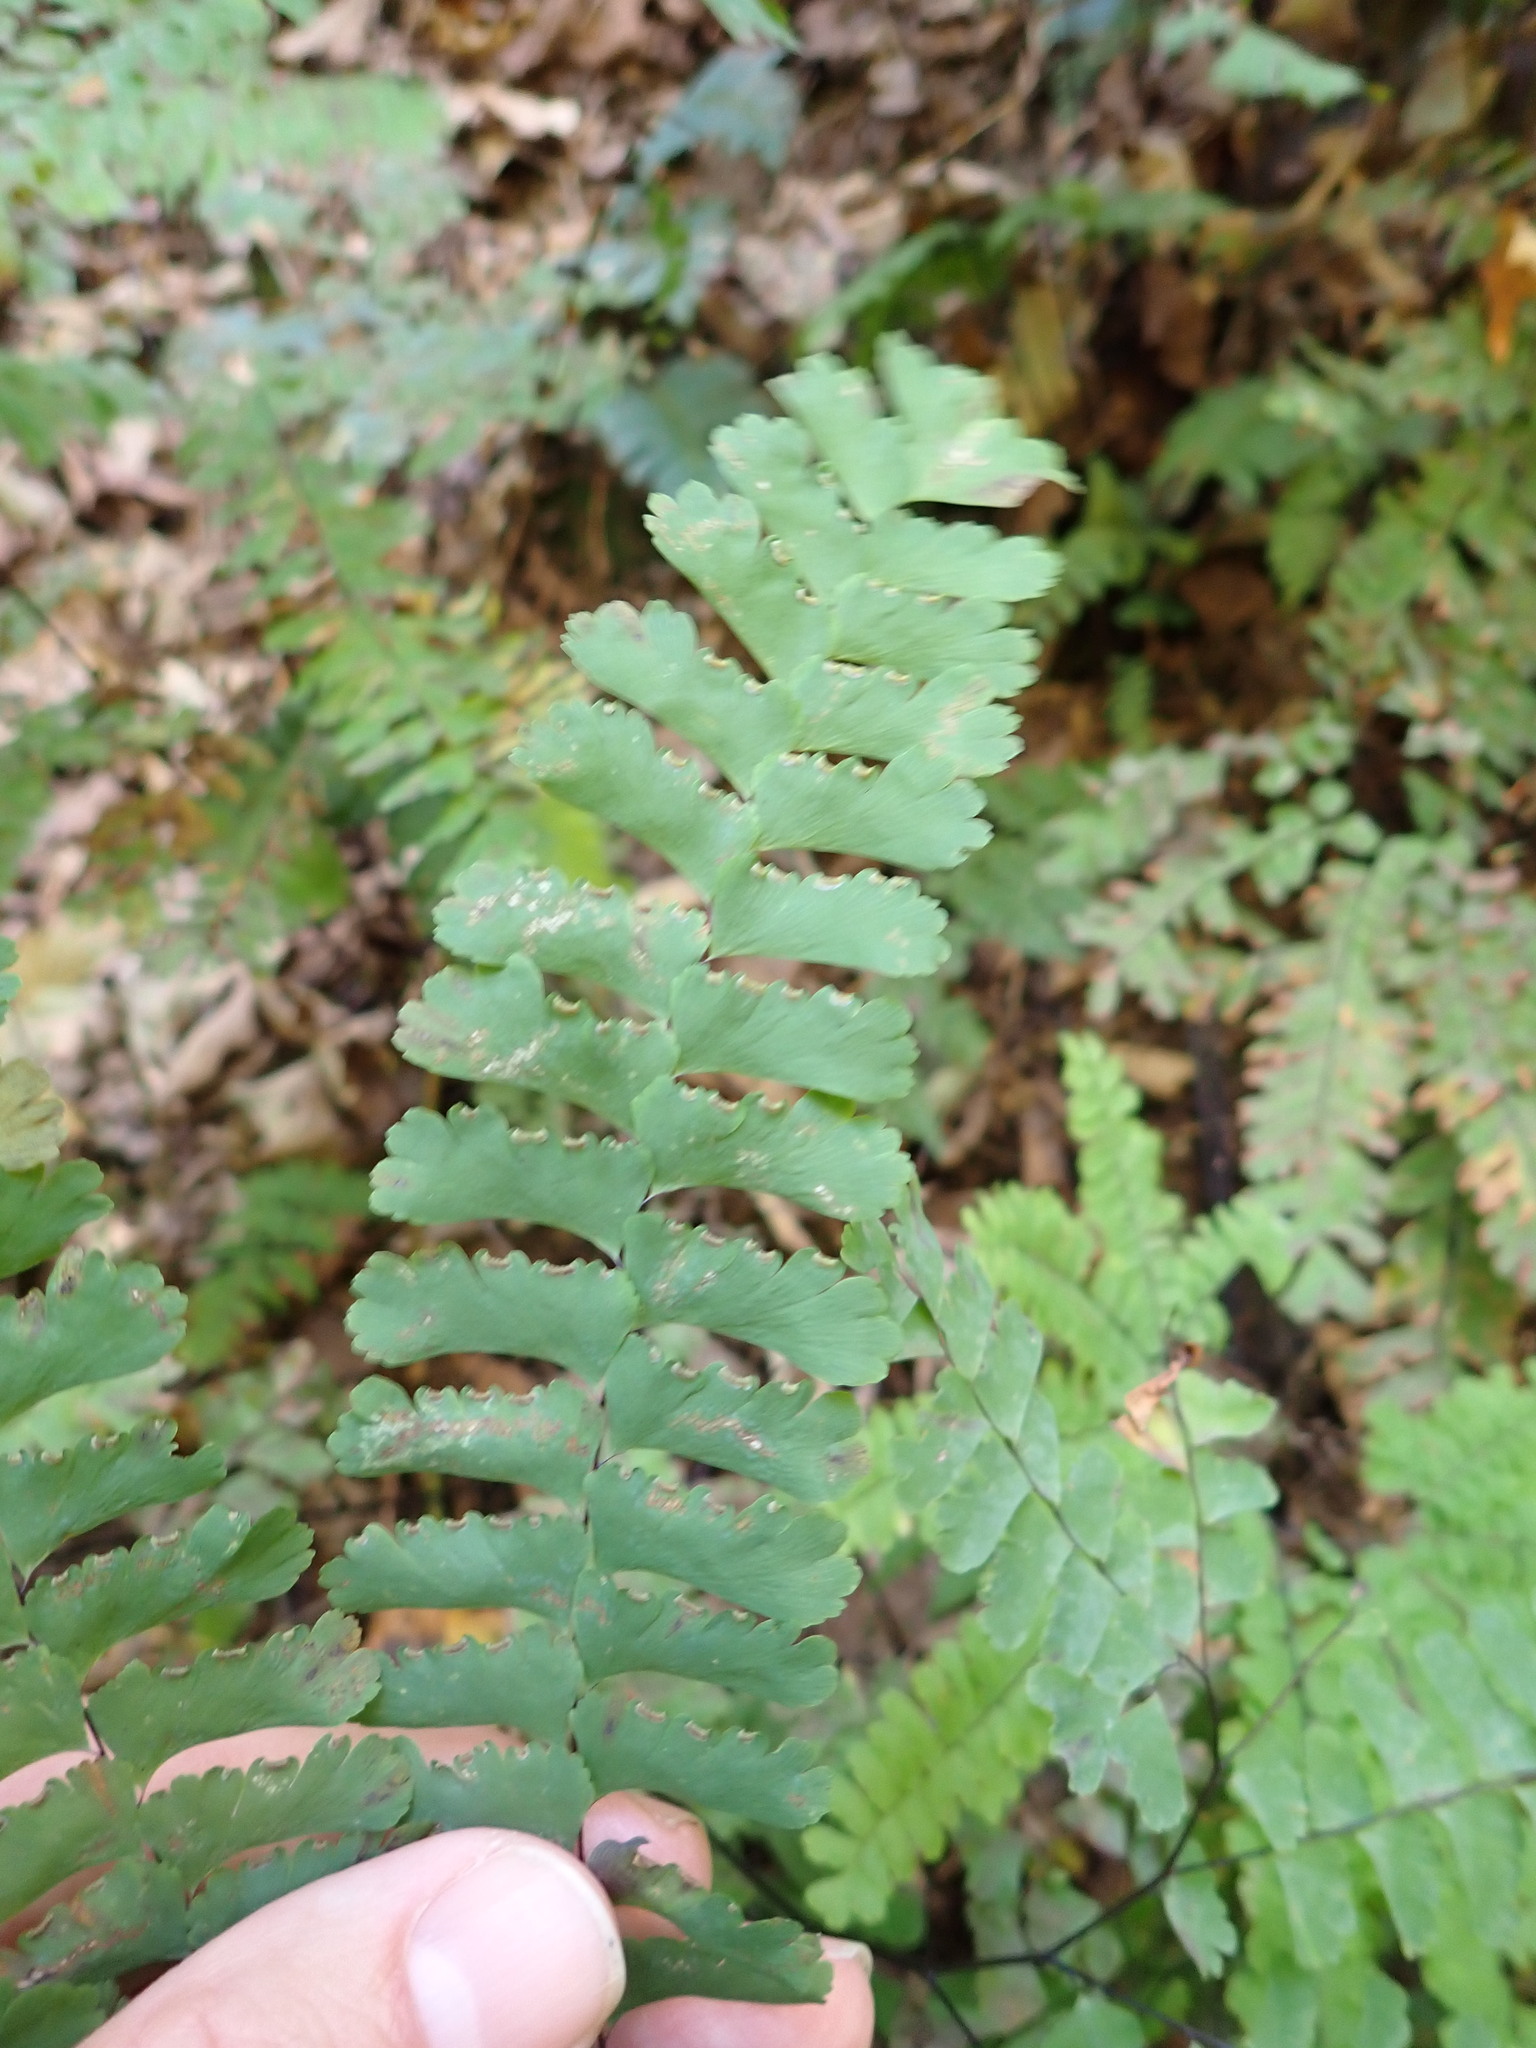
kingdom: Plantae
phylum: Tracheophyta
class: Polypodiopsida
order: Polypodiales
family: Pteridaceae
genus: Adiantum
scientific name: Adiantum pedatum
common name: Five-finger fern
